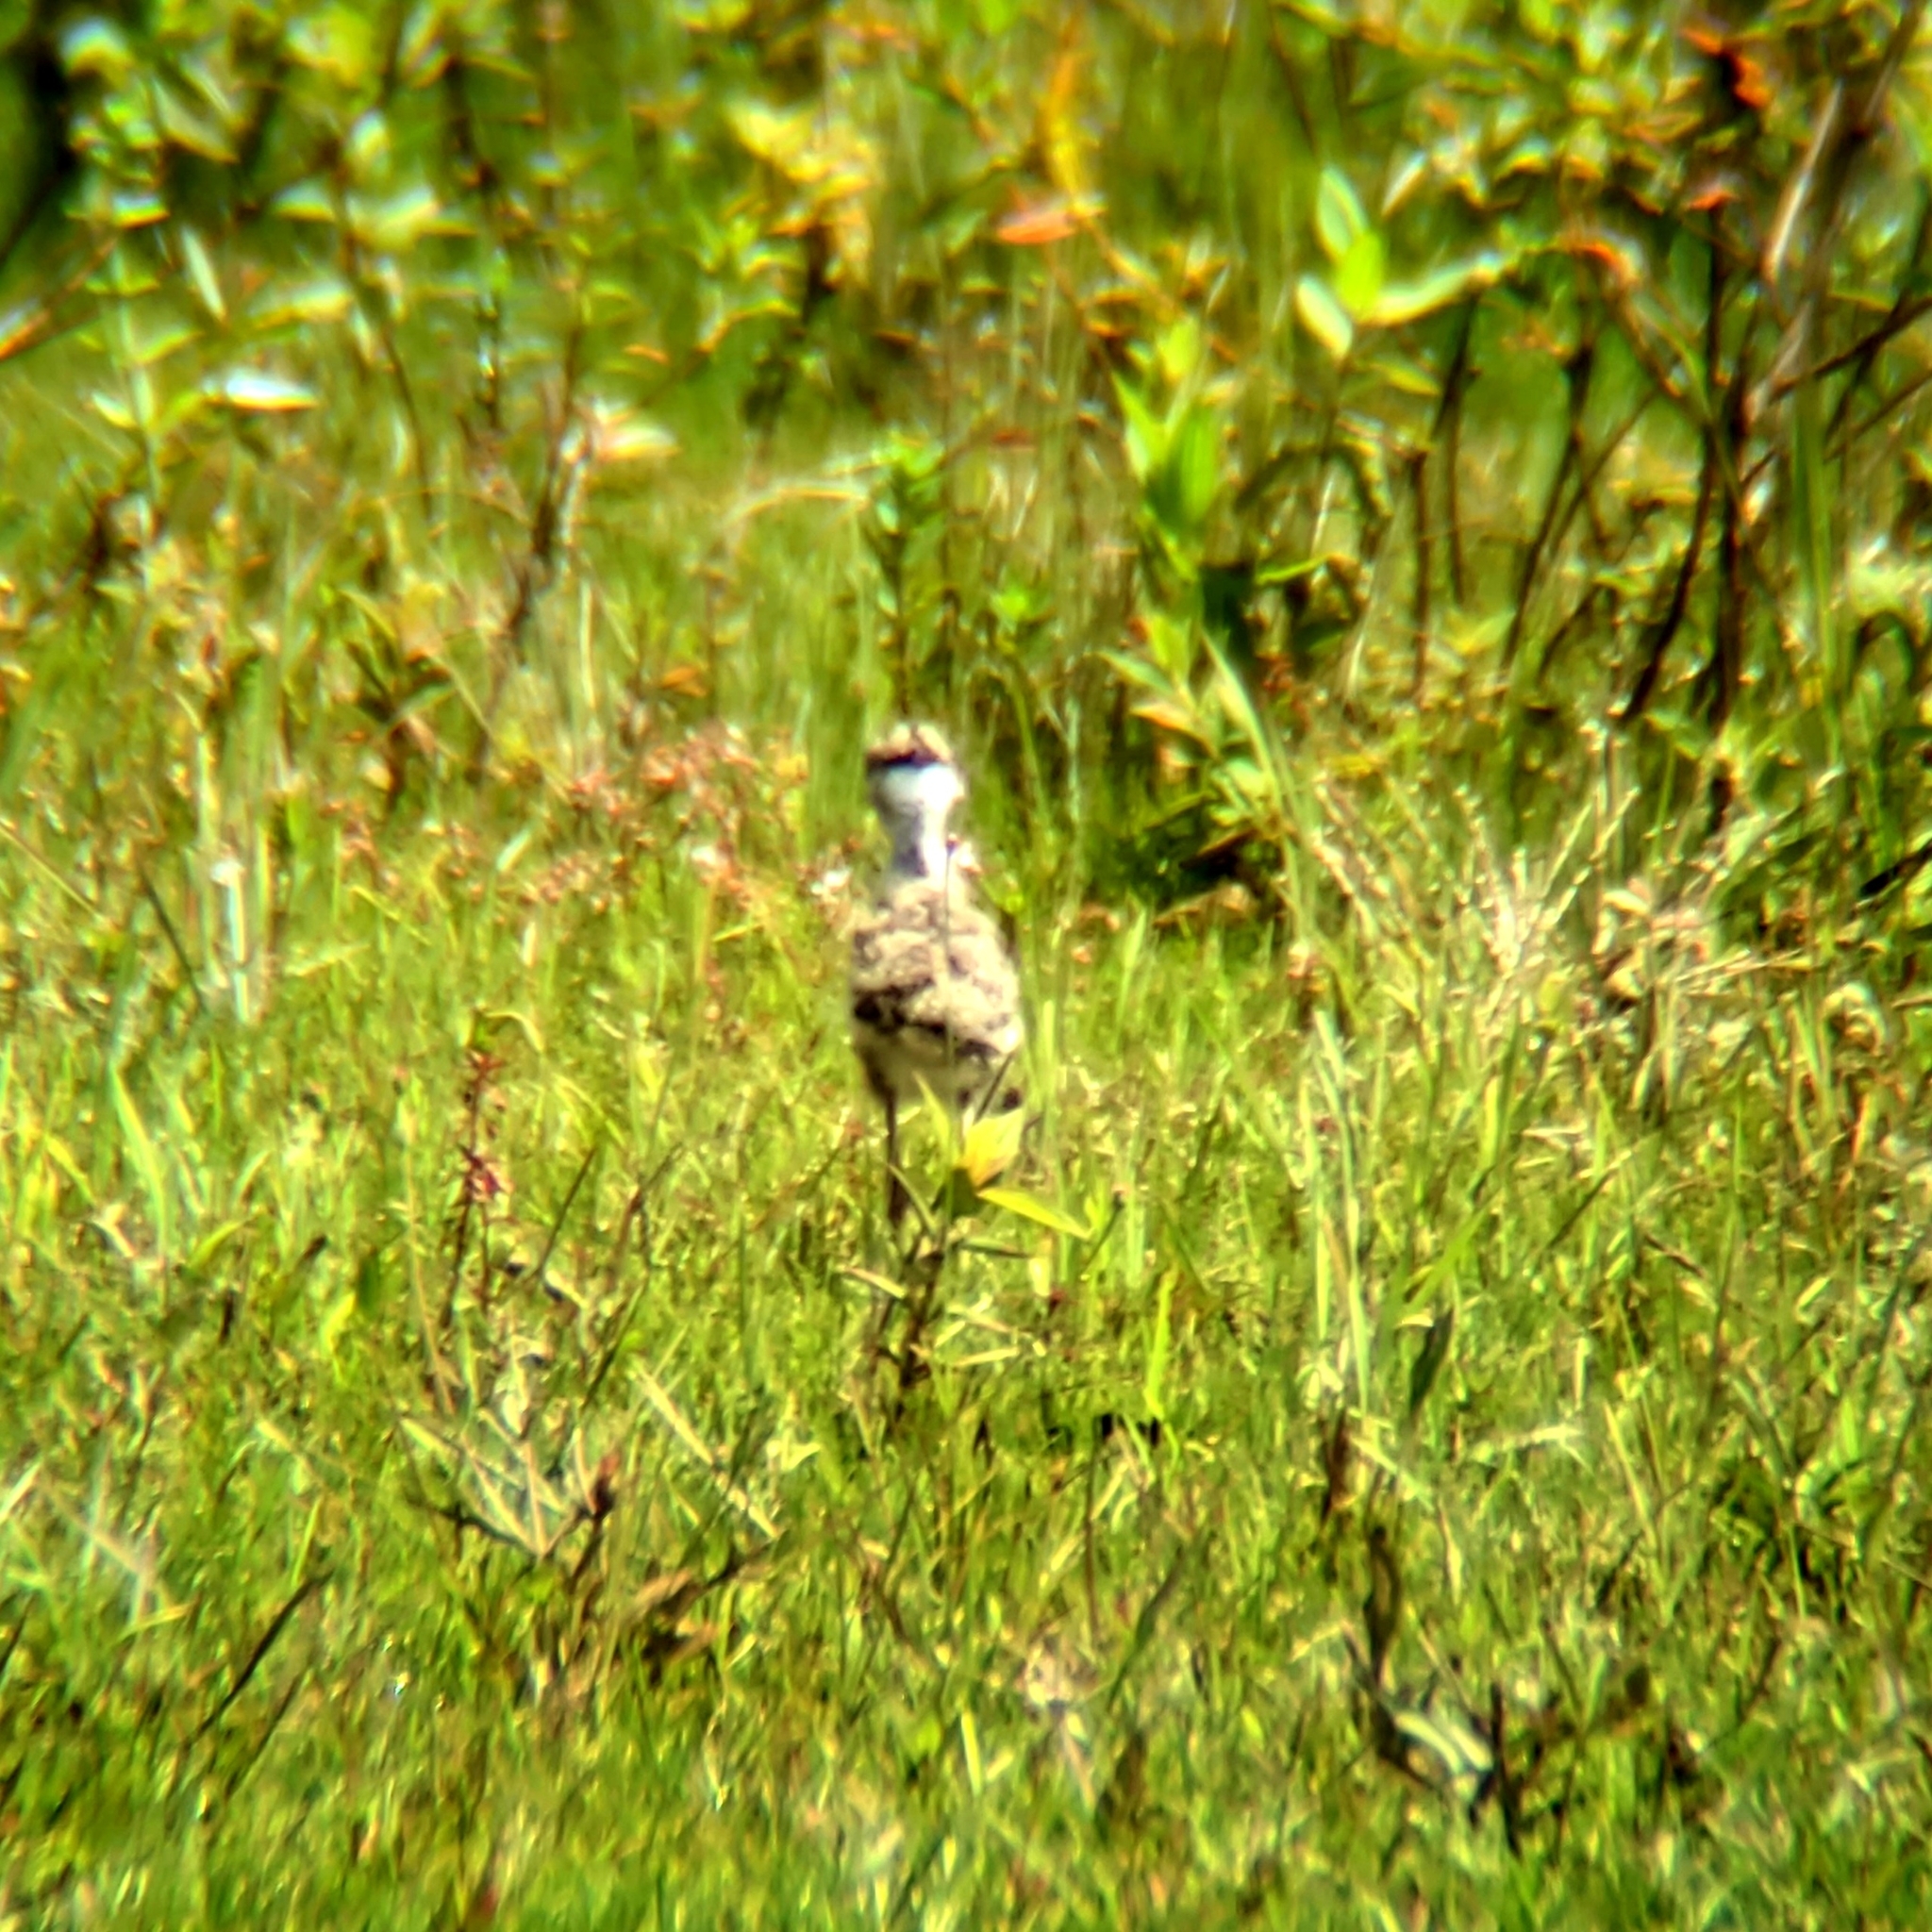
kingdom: Animalia
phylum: Chordata
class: Aves
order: Charadriiformes
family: Charadriidae
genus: Vanellus
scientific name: Vanellus chilensis
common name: Southern lapwing
